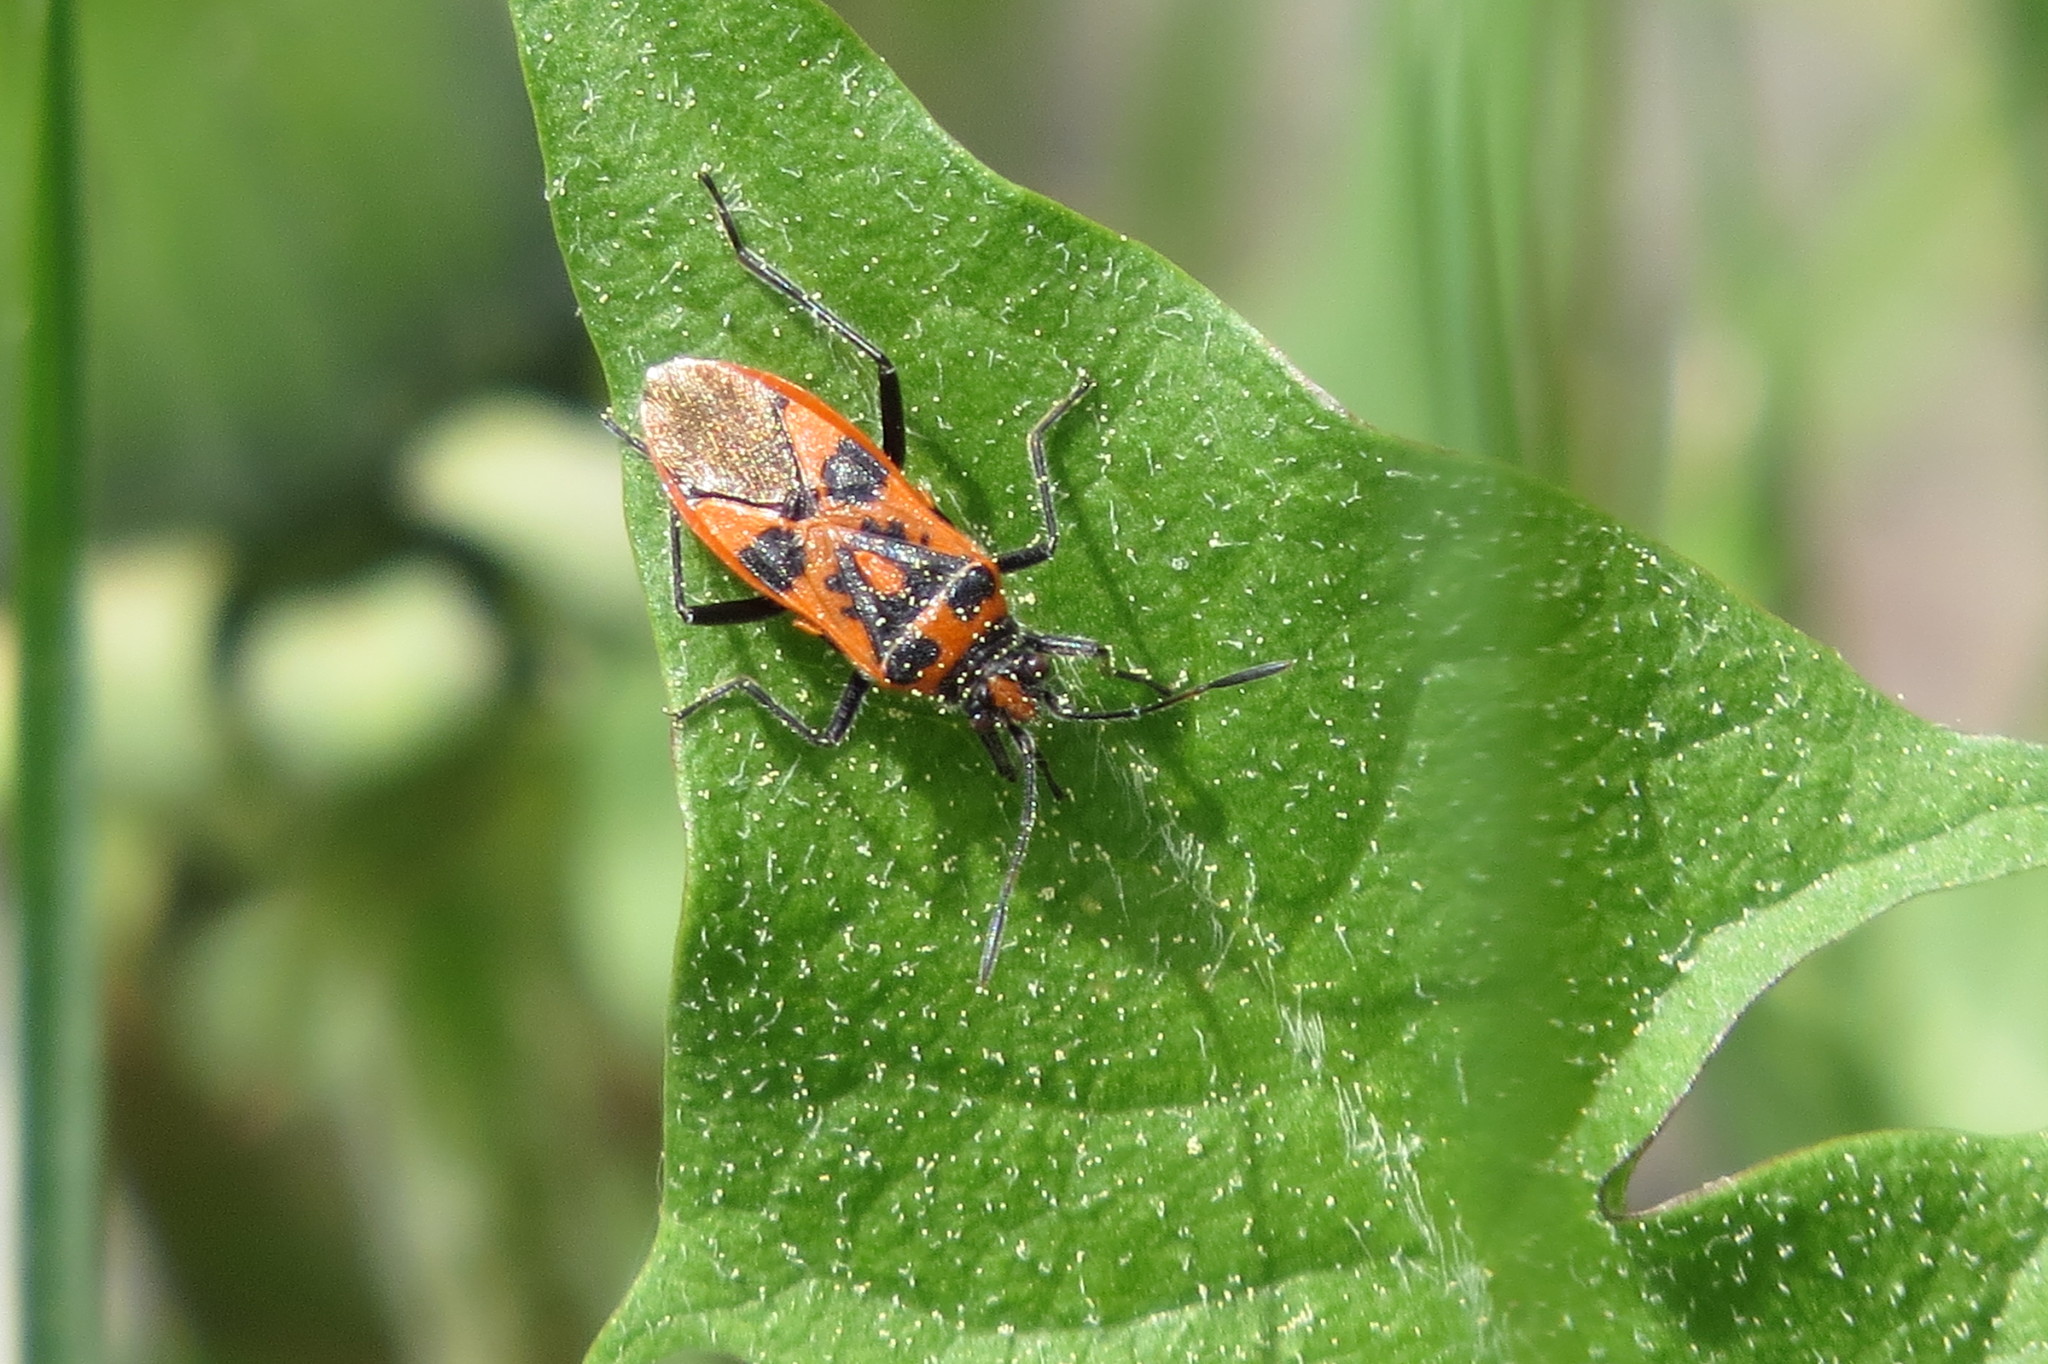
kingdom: Animalia
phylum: Arthropoda
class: Insecta
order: Hemiptera
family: Rhopalidae
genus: Corizus
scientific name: Corizus hyoscyami
